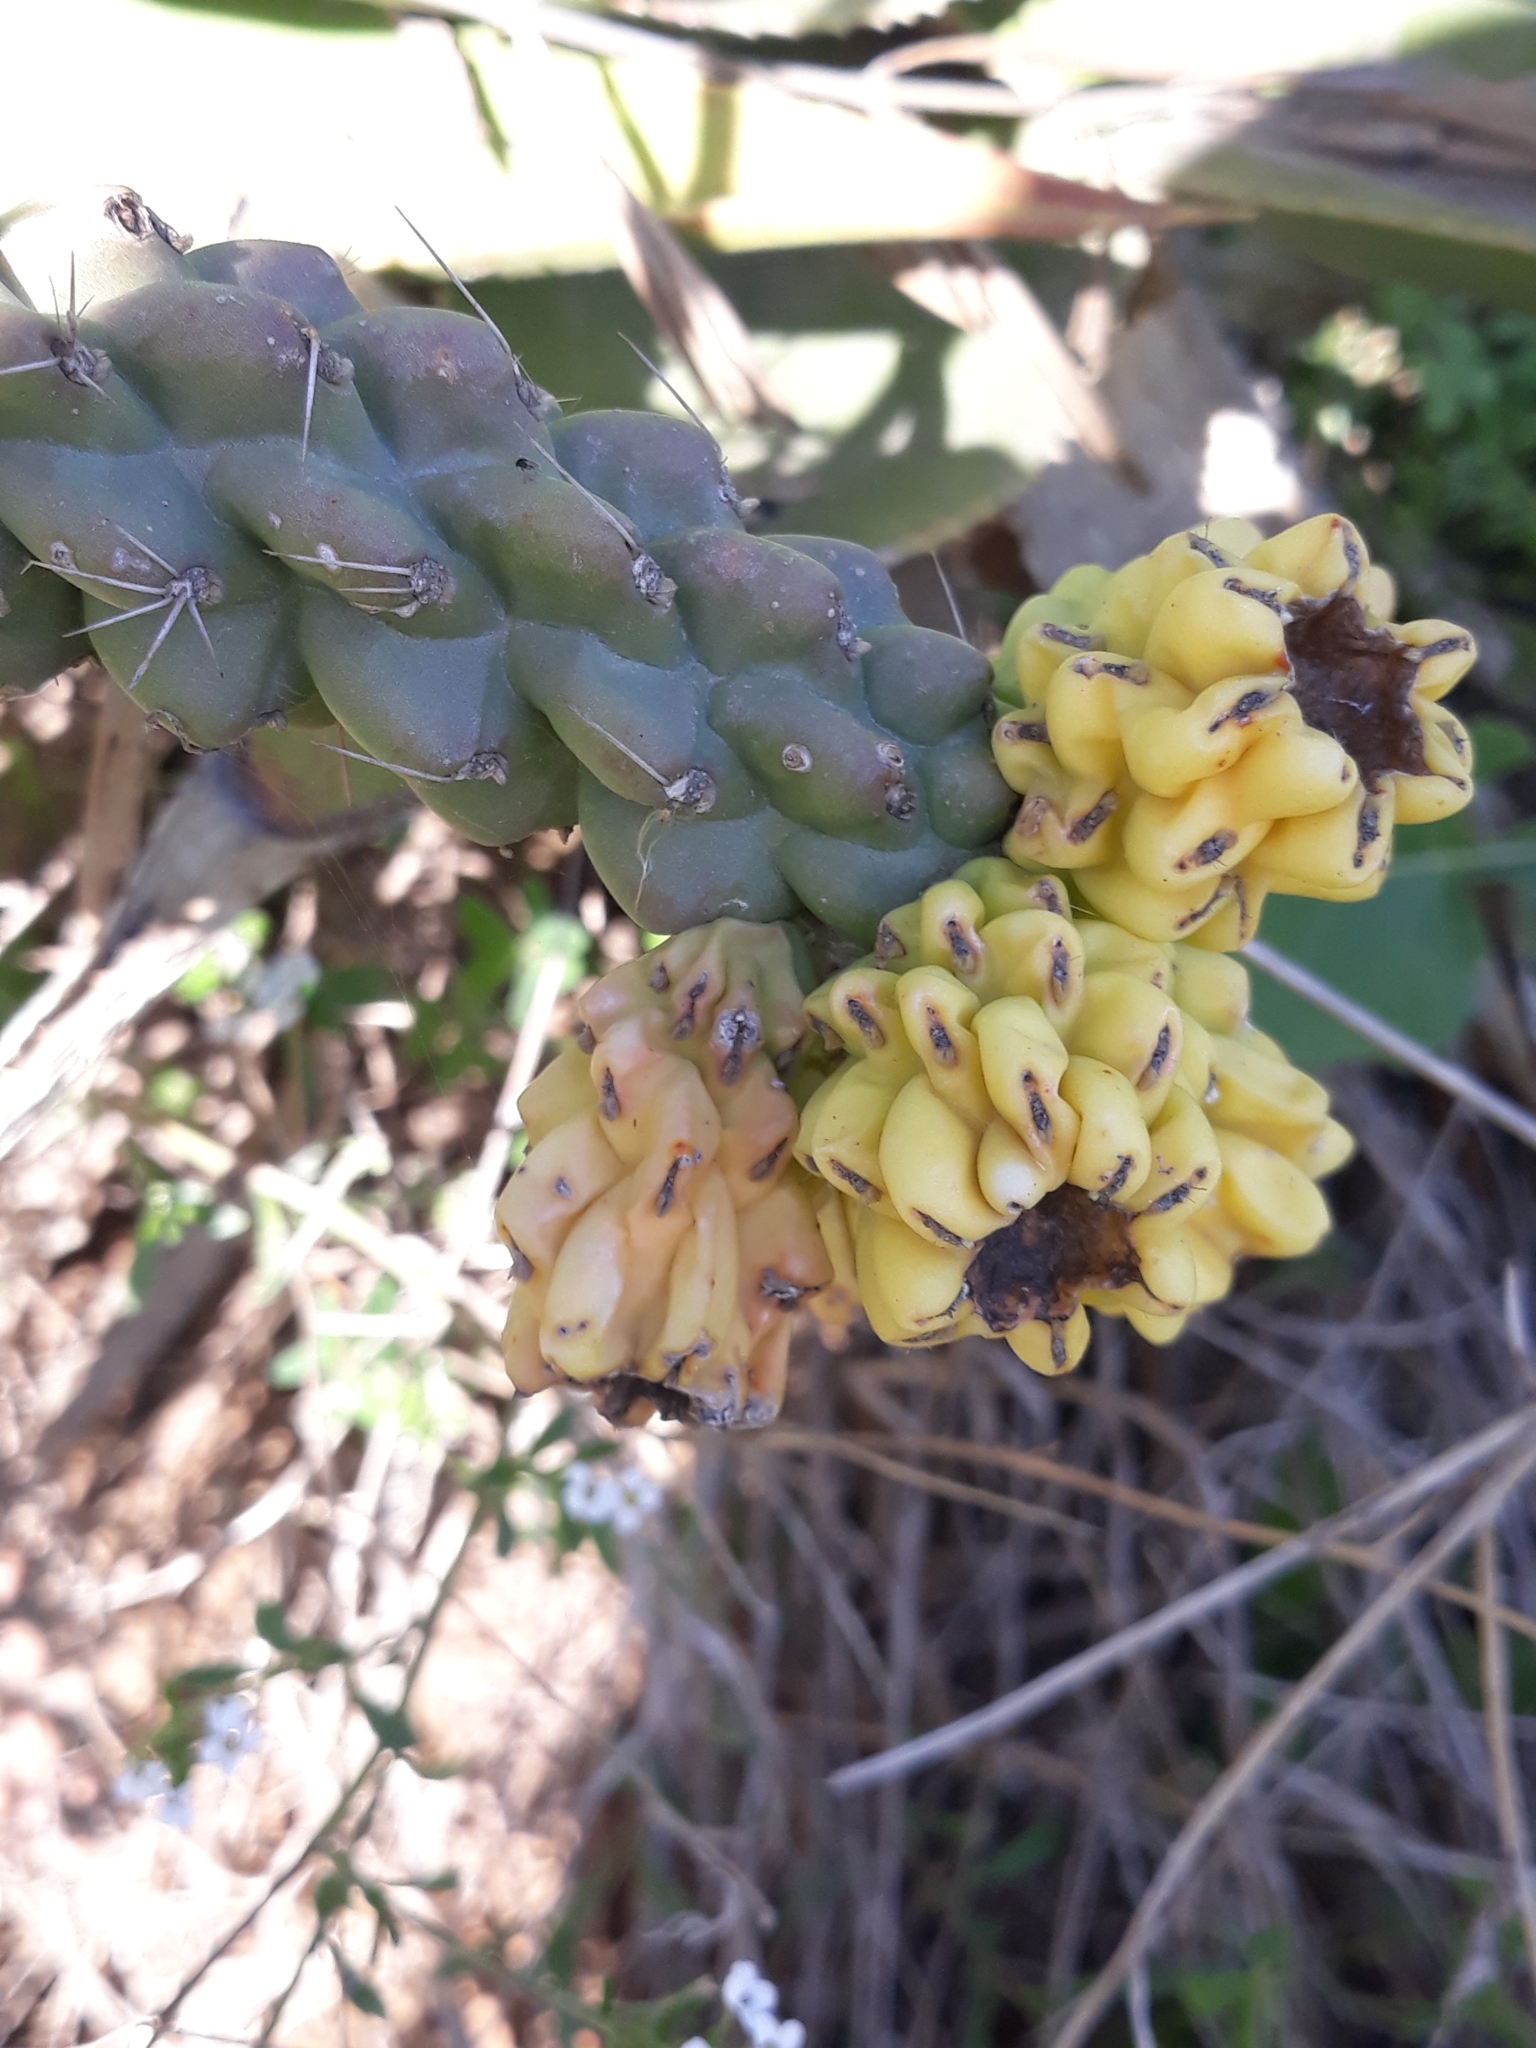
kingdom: Plantae
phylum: Tracheophyta
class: Magnoliopsida
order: Caryophyllales
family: Cactaceae
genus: Cylindropuntia
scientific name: Cylindropuntia imbricata
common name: Candelabrum cactus
